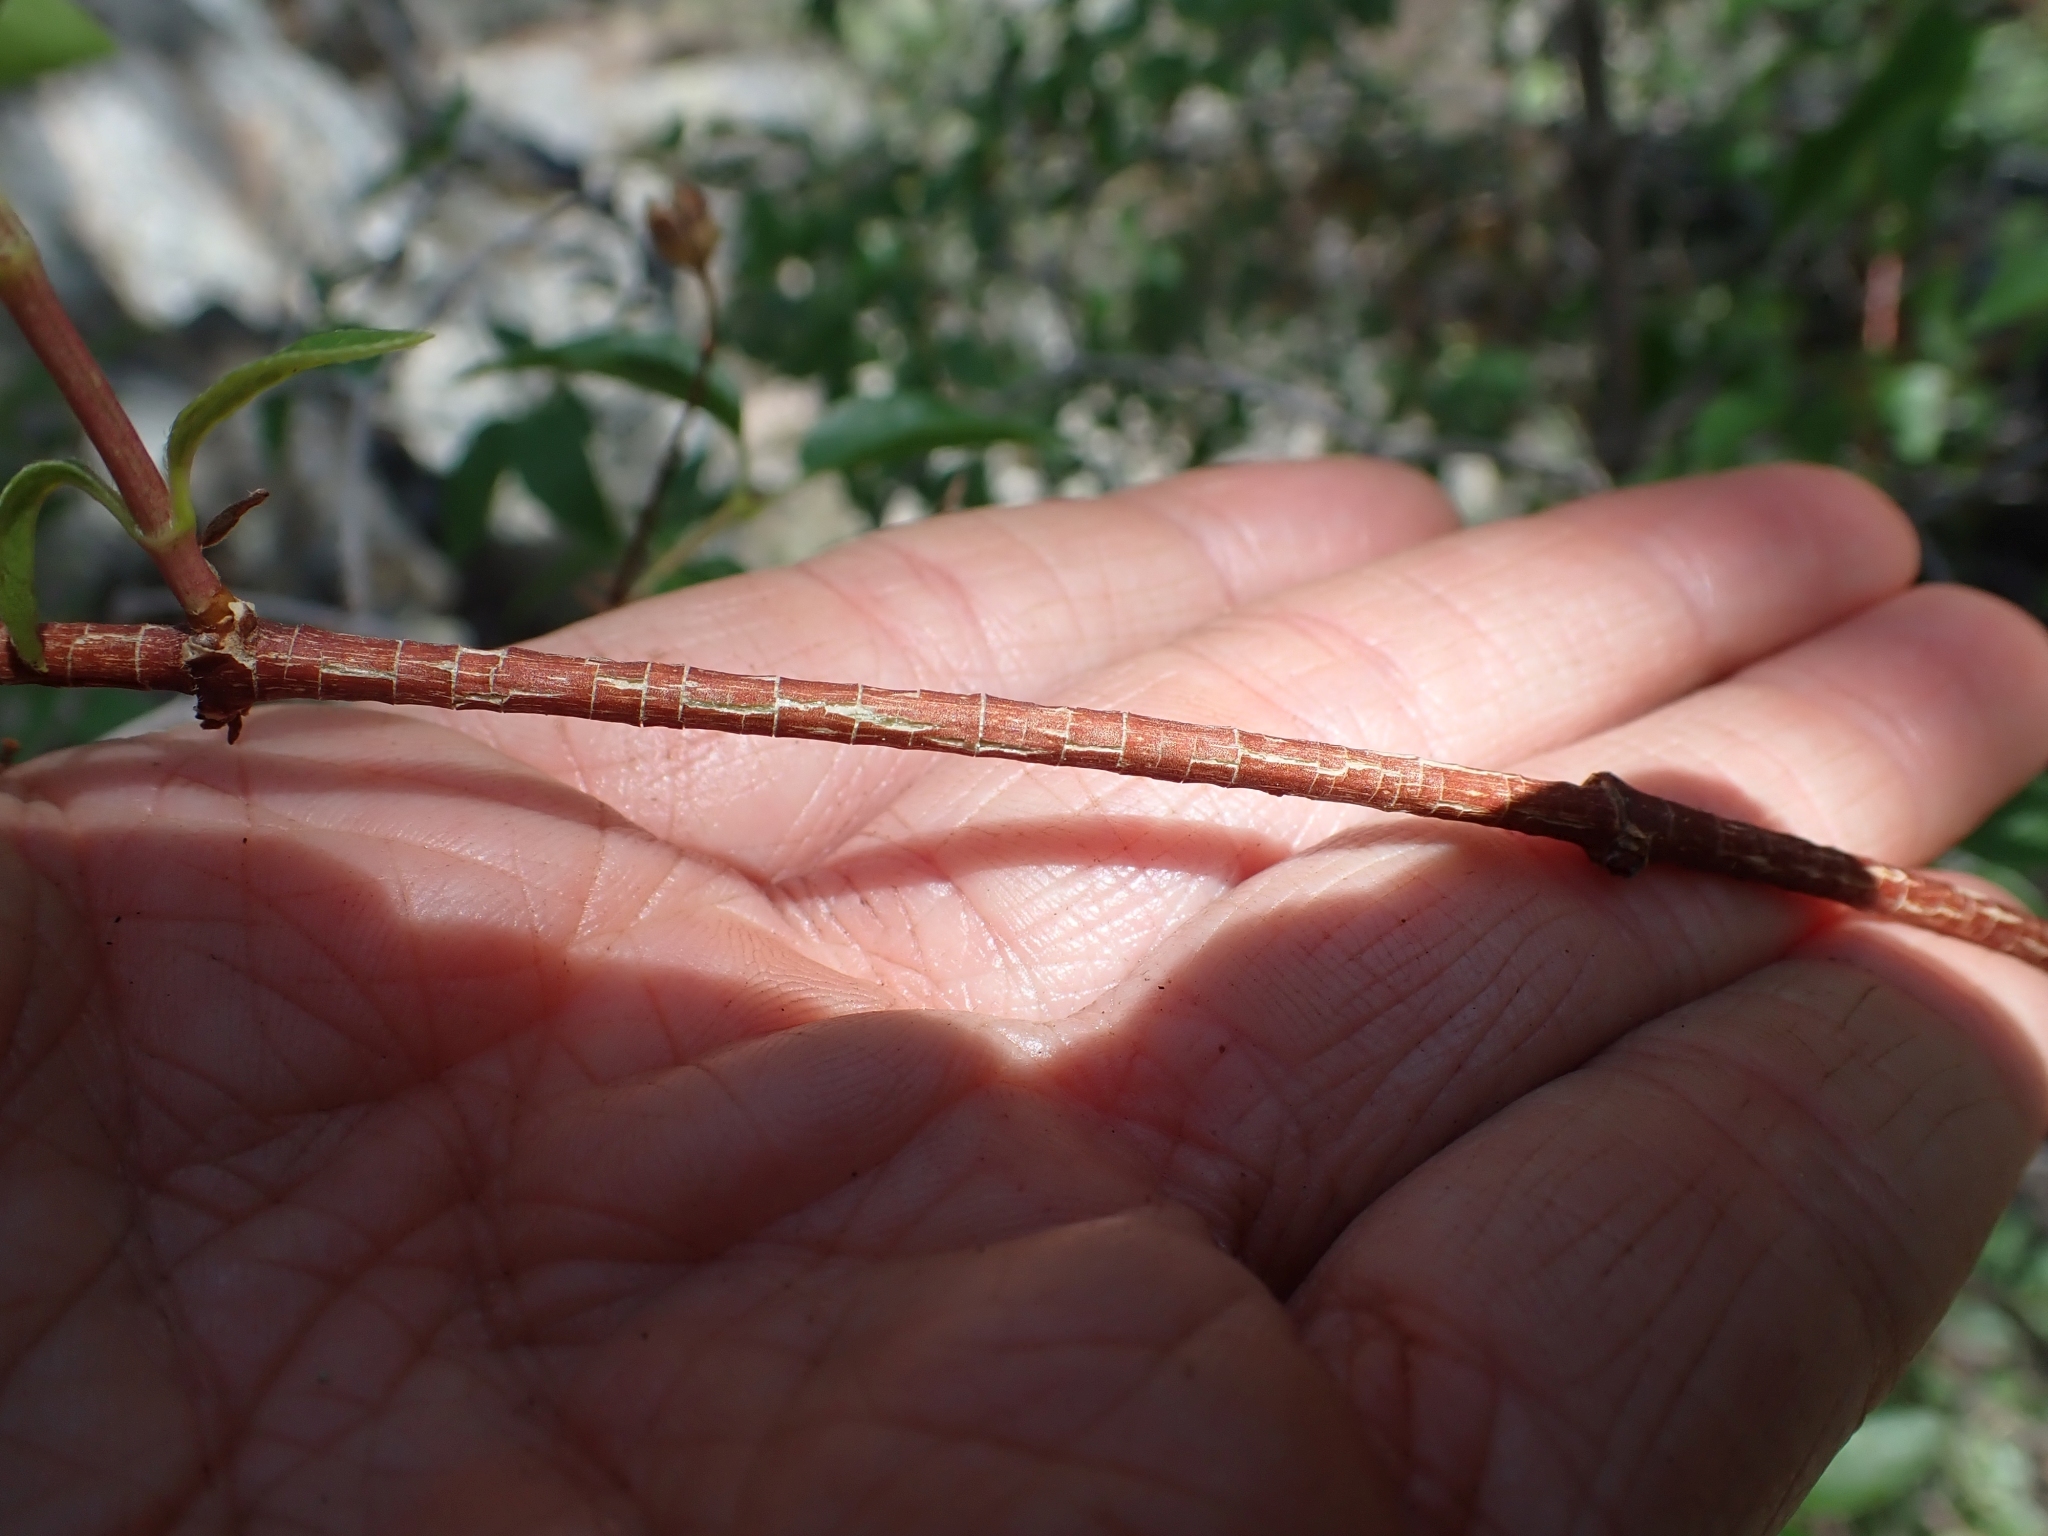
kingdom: Plantae
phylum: Tracheophyta
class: Magnoliopsida
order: Cornales
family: Hydrangeaceae
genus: Philadelphus
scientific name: Philadelphus lewisii
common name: Lewis's mock orange
